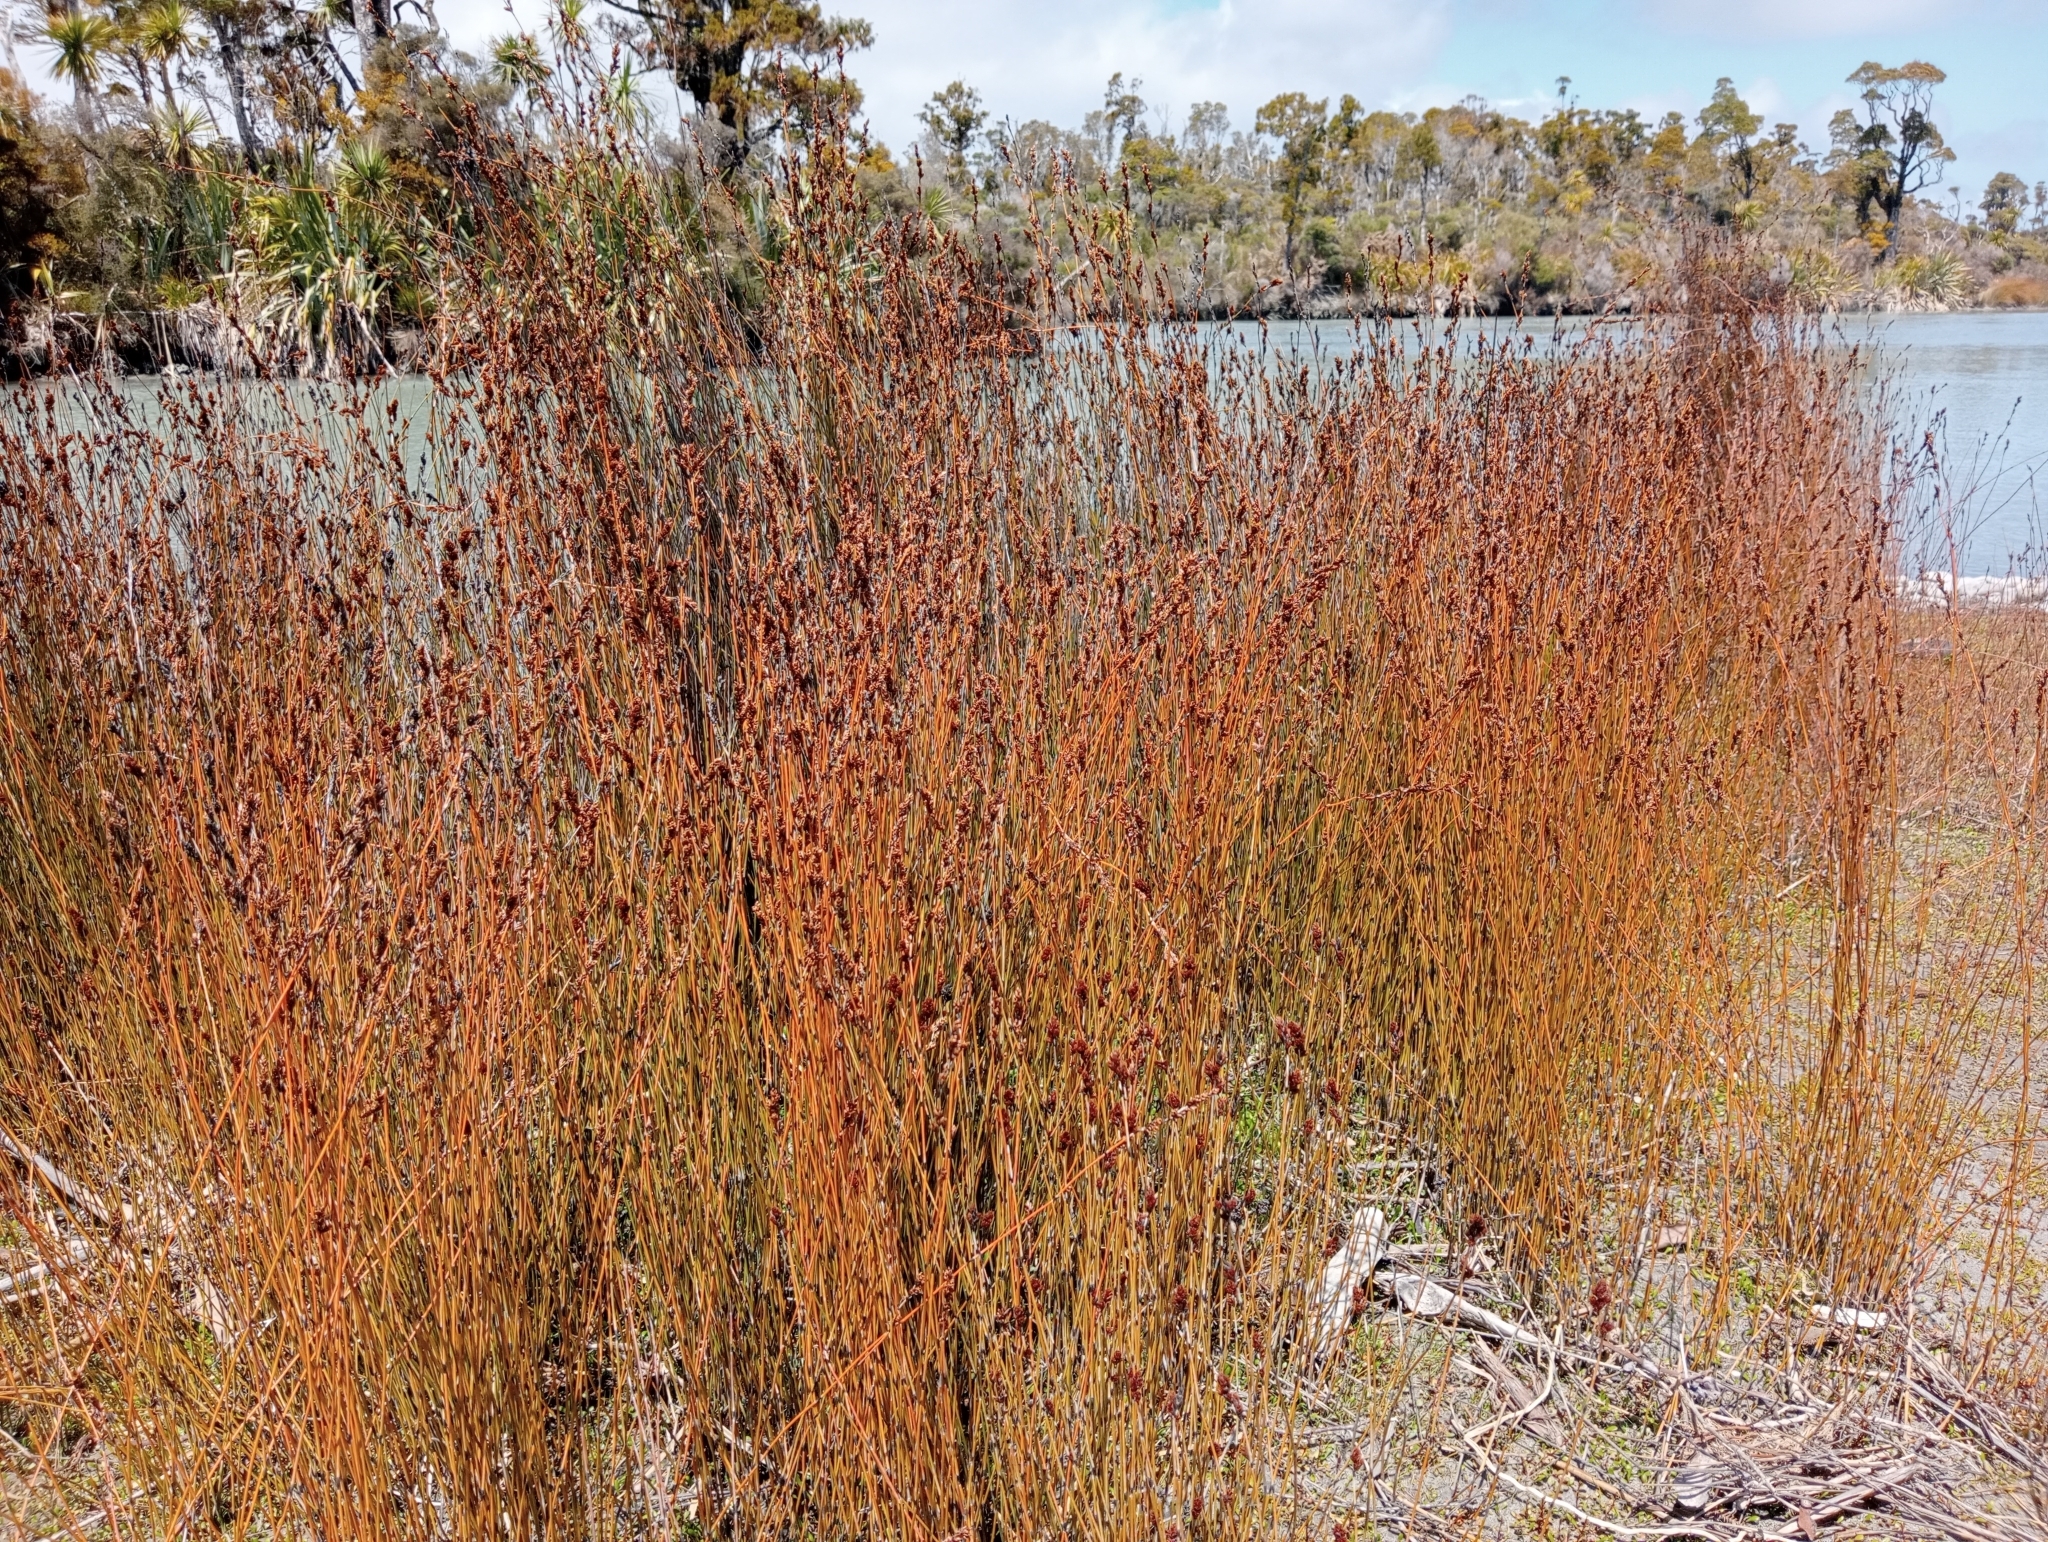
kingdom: Plantae
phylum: Tracheophyta
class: Liliopsida
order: Poales
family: Restionaceae
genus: Apodasmia
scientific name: Apodasmia similis
